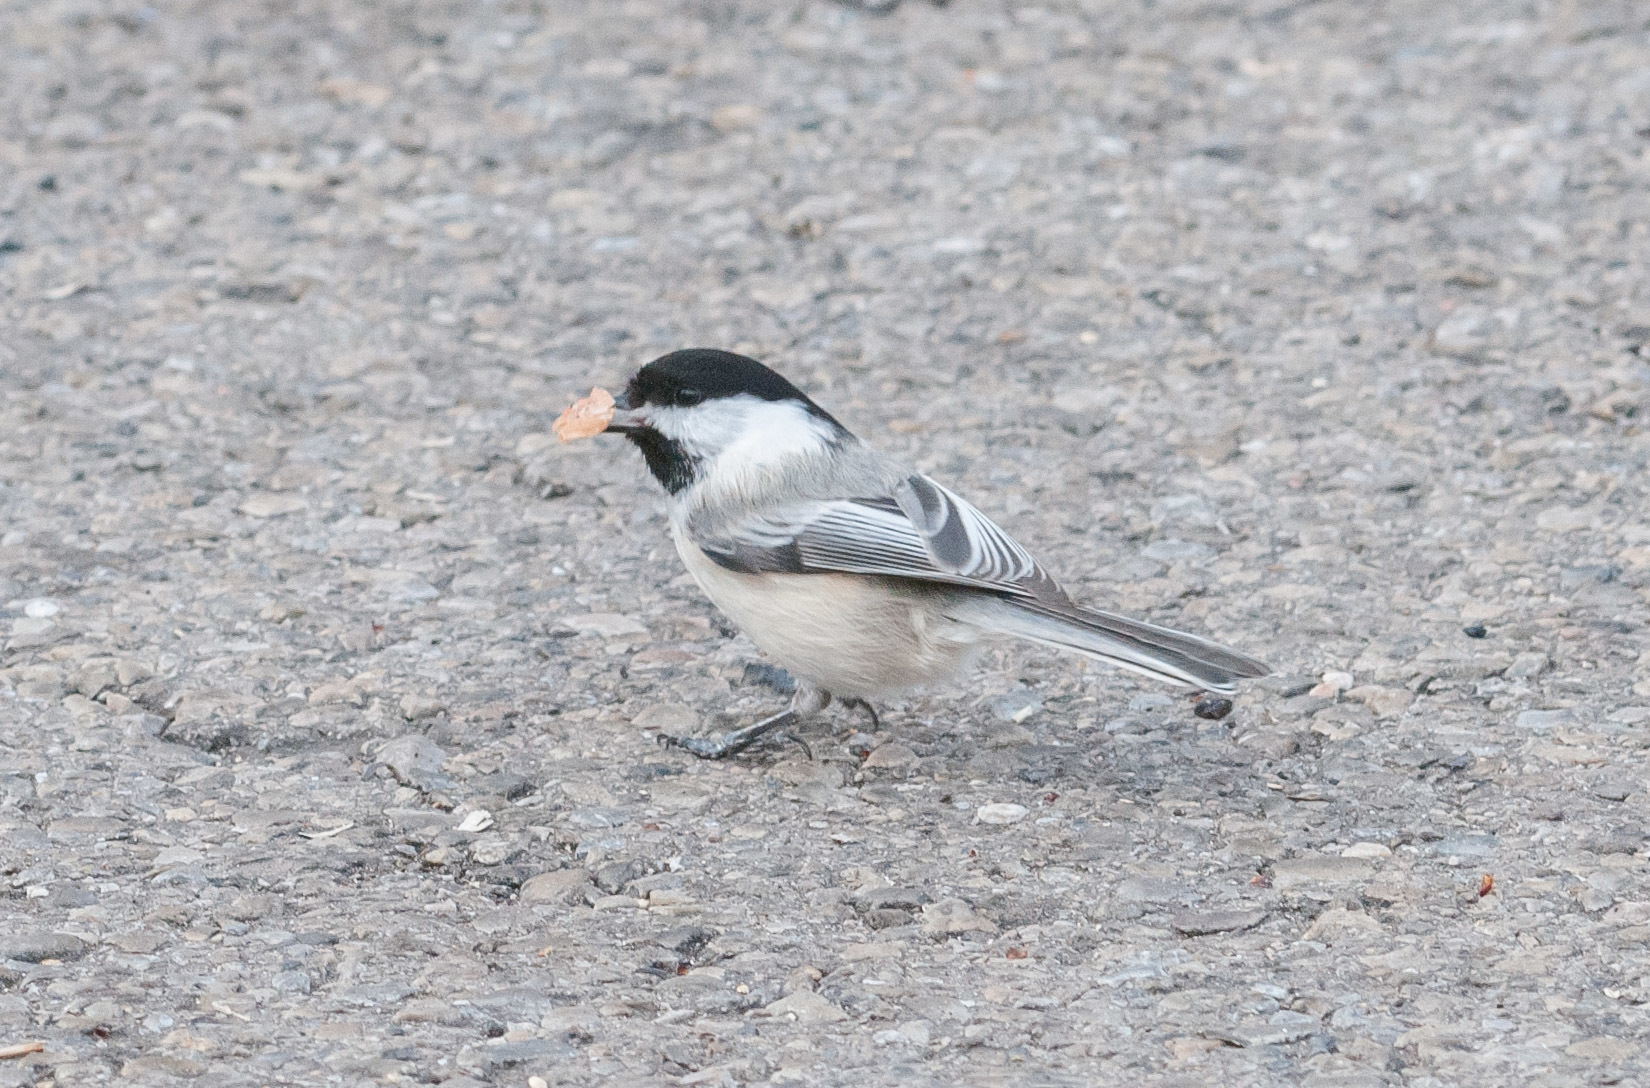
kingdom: Animalia
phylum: Chordata
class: Aves
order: Passeriformes
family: Paridae
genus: Poecile
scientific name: Poecile atricapillus
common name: Black-capped chickadee
